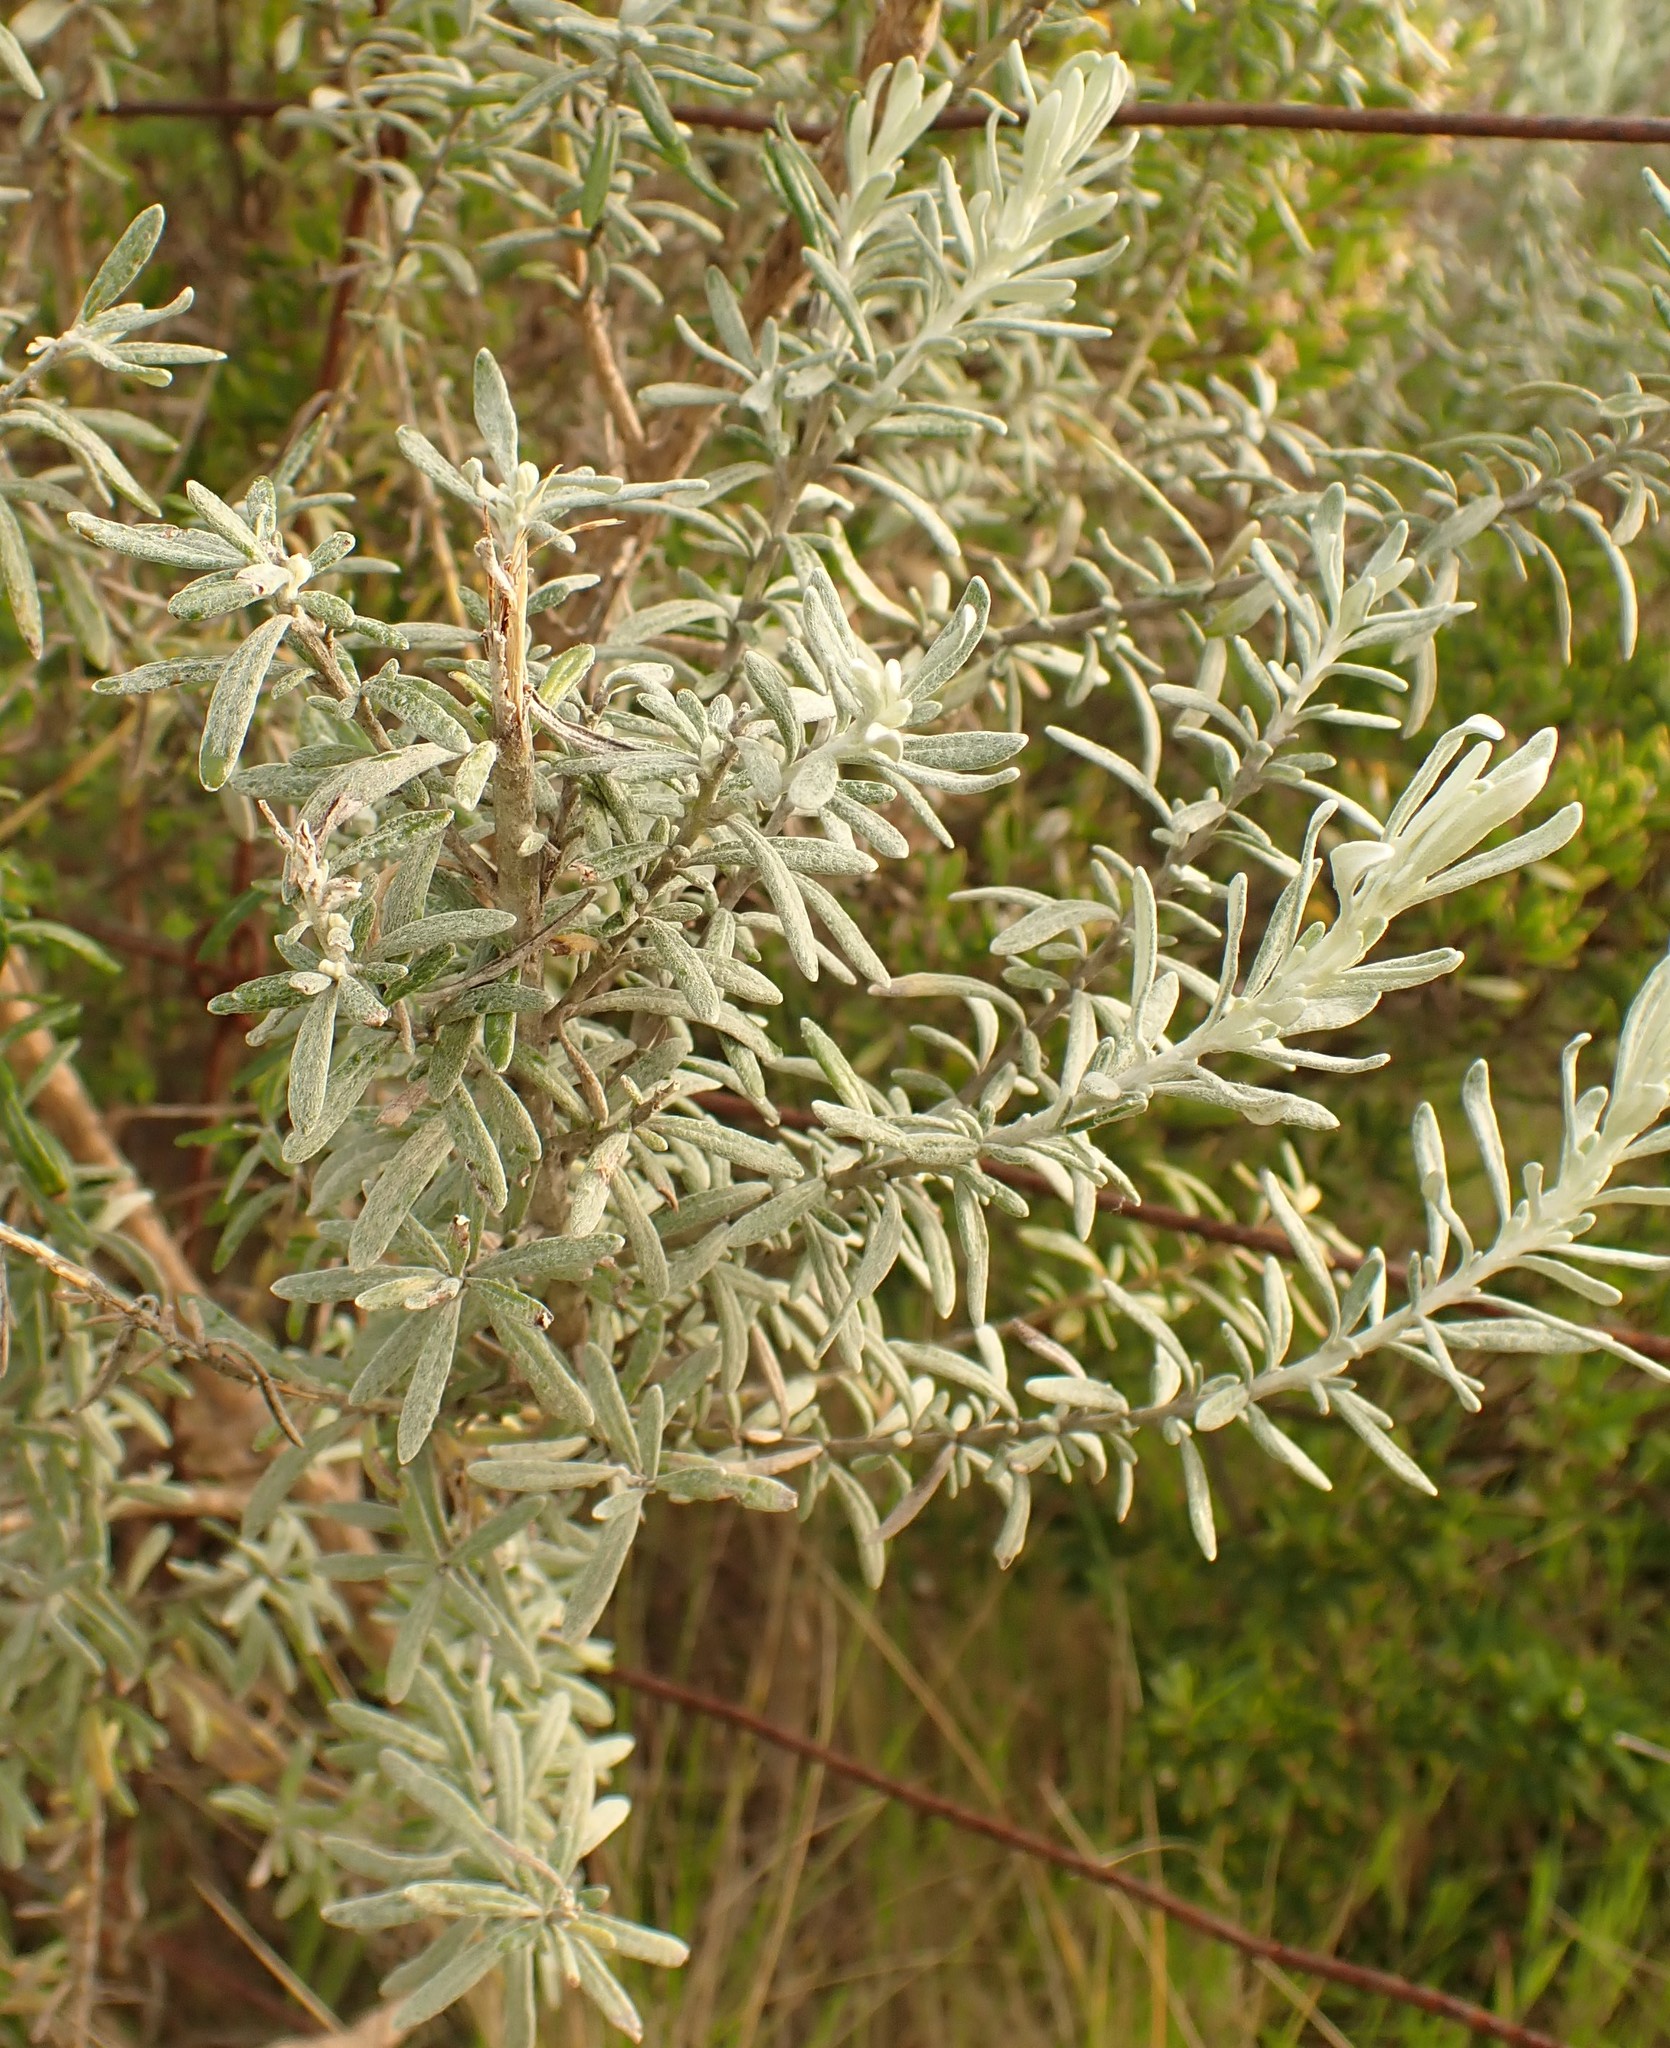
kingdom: Plantae
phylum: Tracheophyta
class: Magnoliopsida
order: Asterales
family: Asteraceae
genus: Olearia
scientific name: Olearia axillaris
